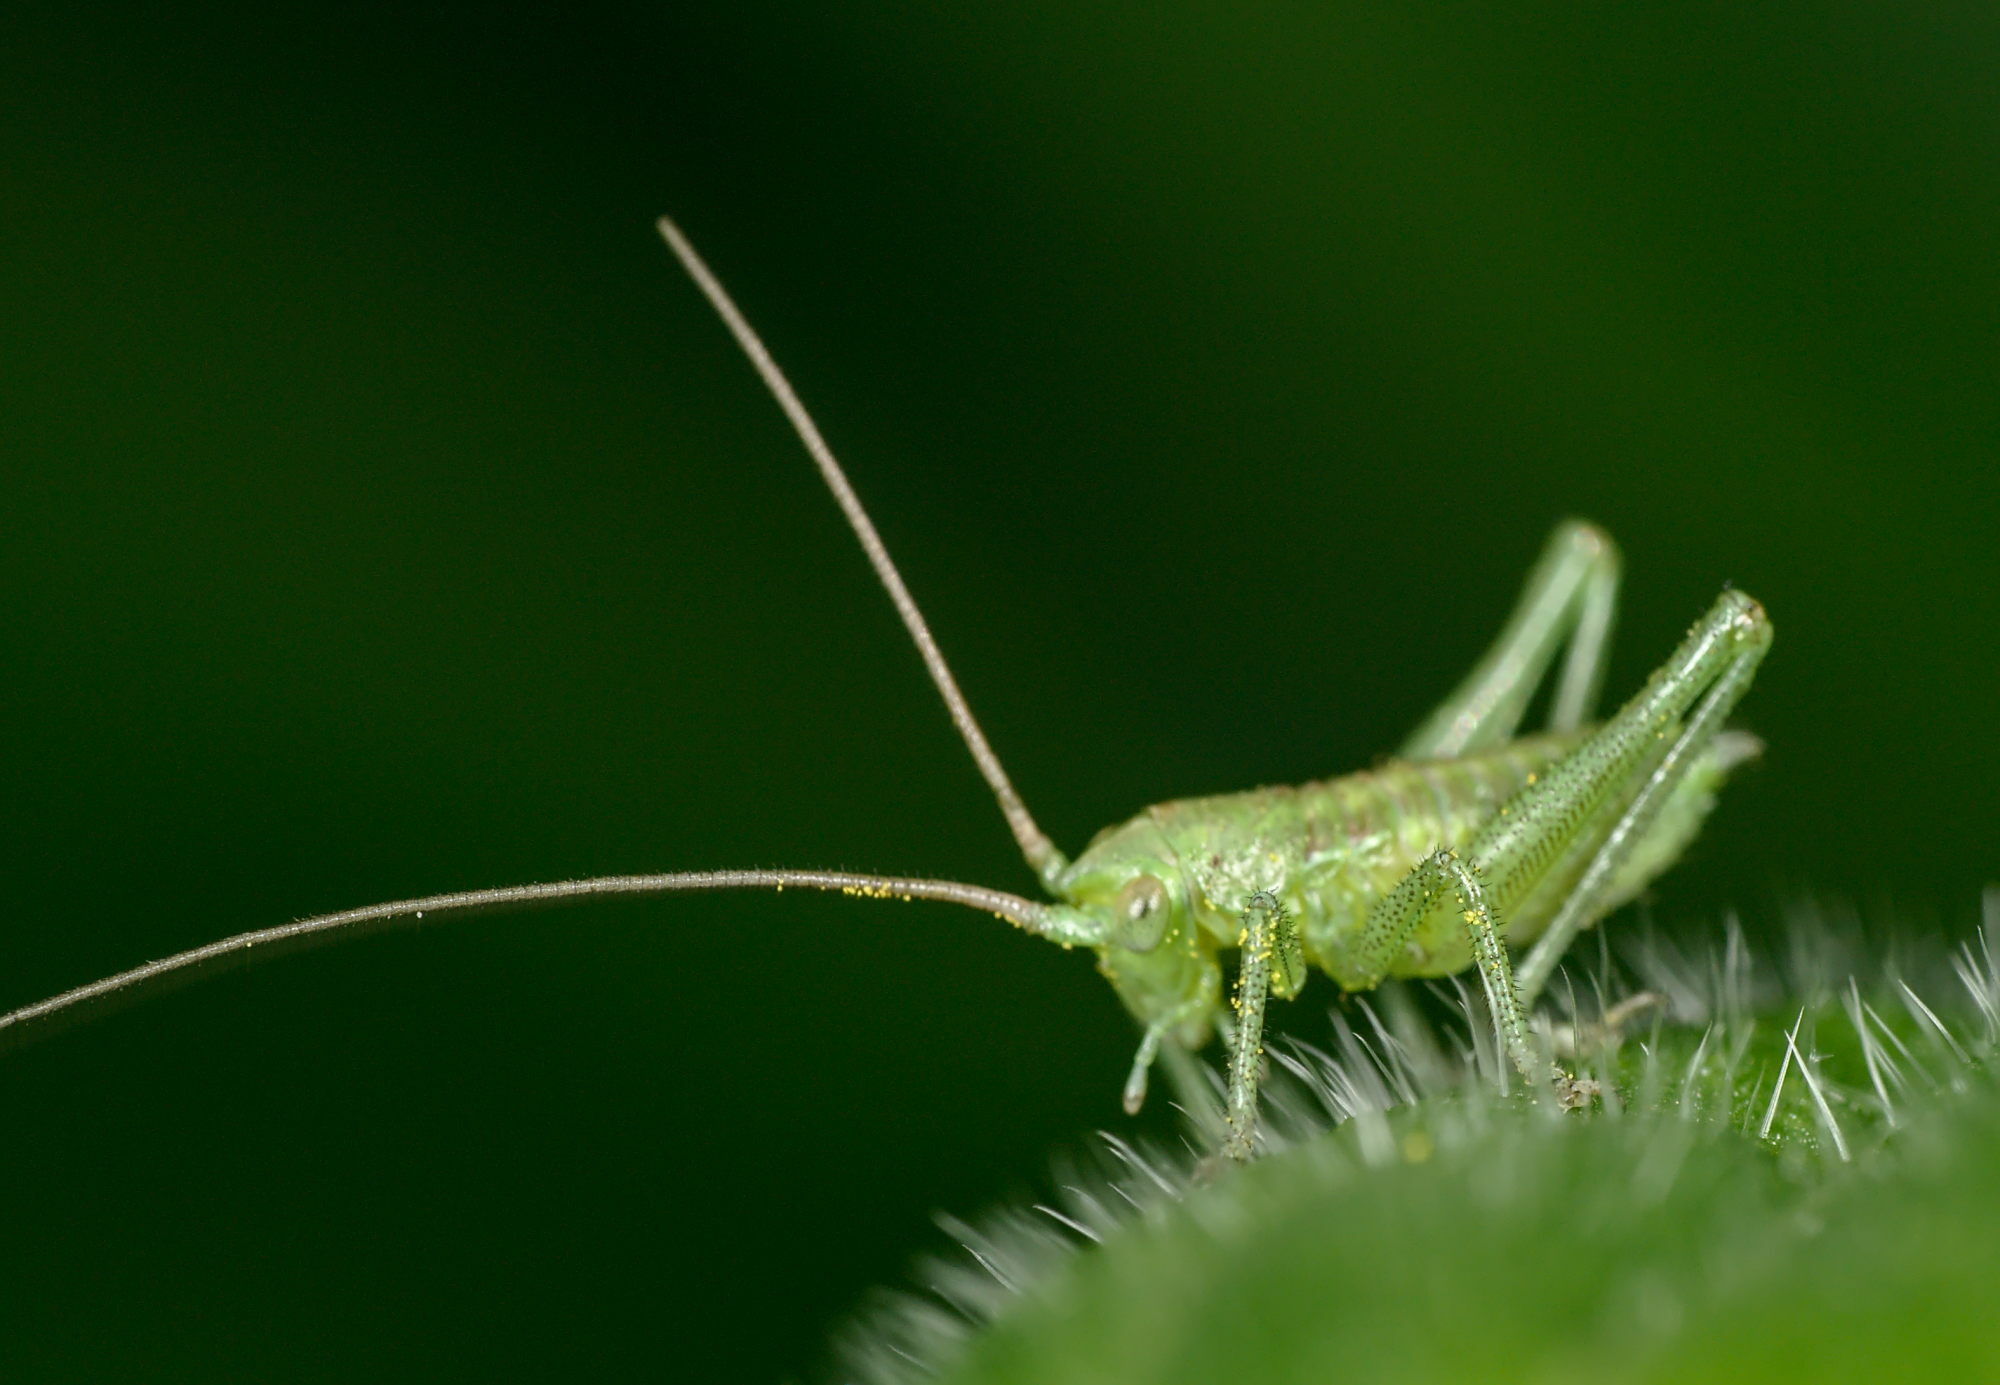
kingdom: Animalia
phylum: Arthropoda
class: Insecta
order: Orthoptera
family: Tettigoniidae
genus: Tettigonia
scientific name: Tettigonia viridissima
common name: Great green bush-cricket
